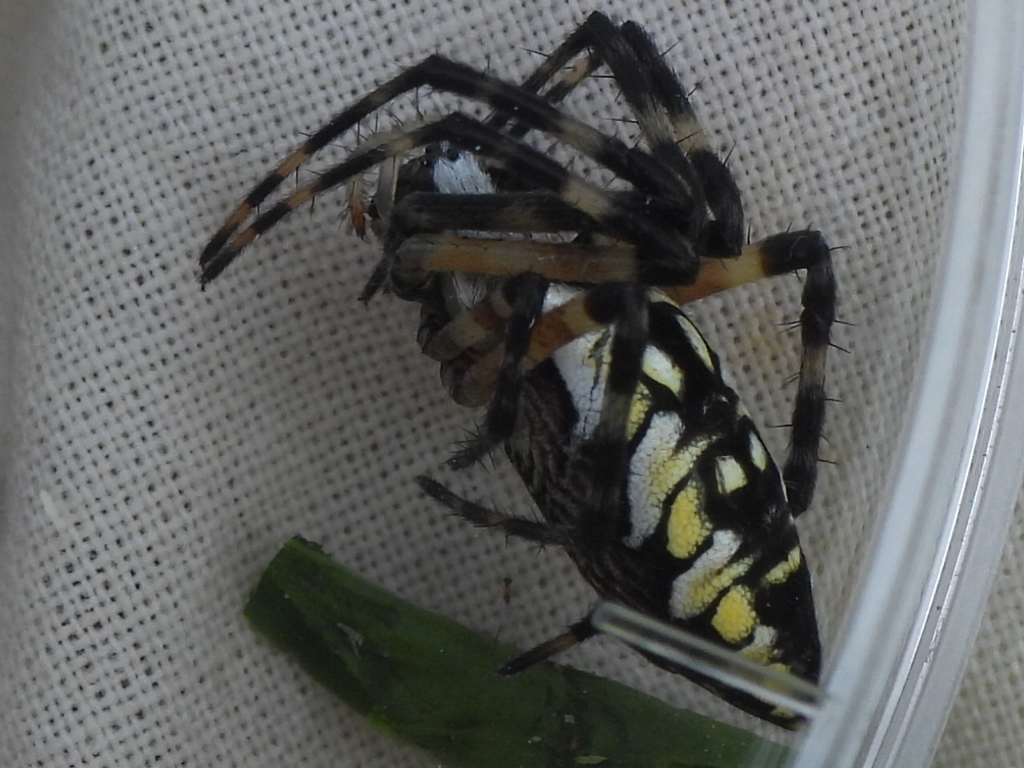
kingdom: Animalia
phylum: Arthropoda
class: Arachnida
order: Araneae
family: Araneidae
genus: Argiope
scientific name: Argiope aurantia
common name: Orb weavers
